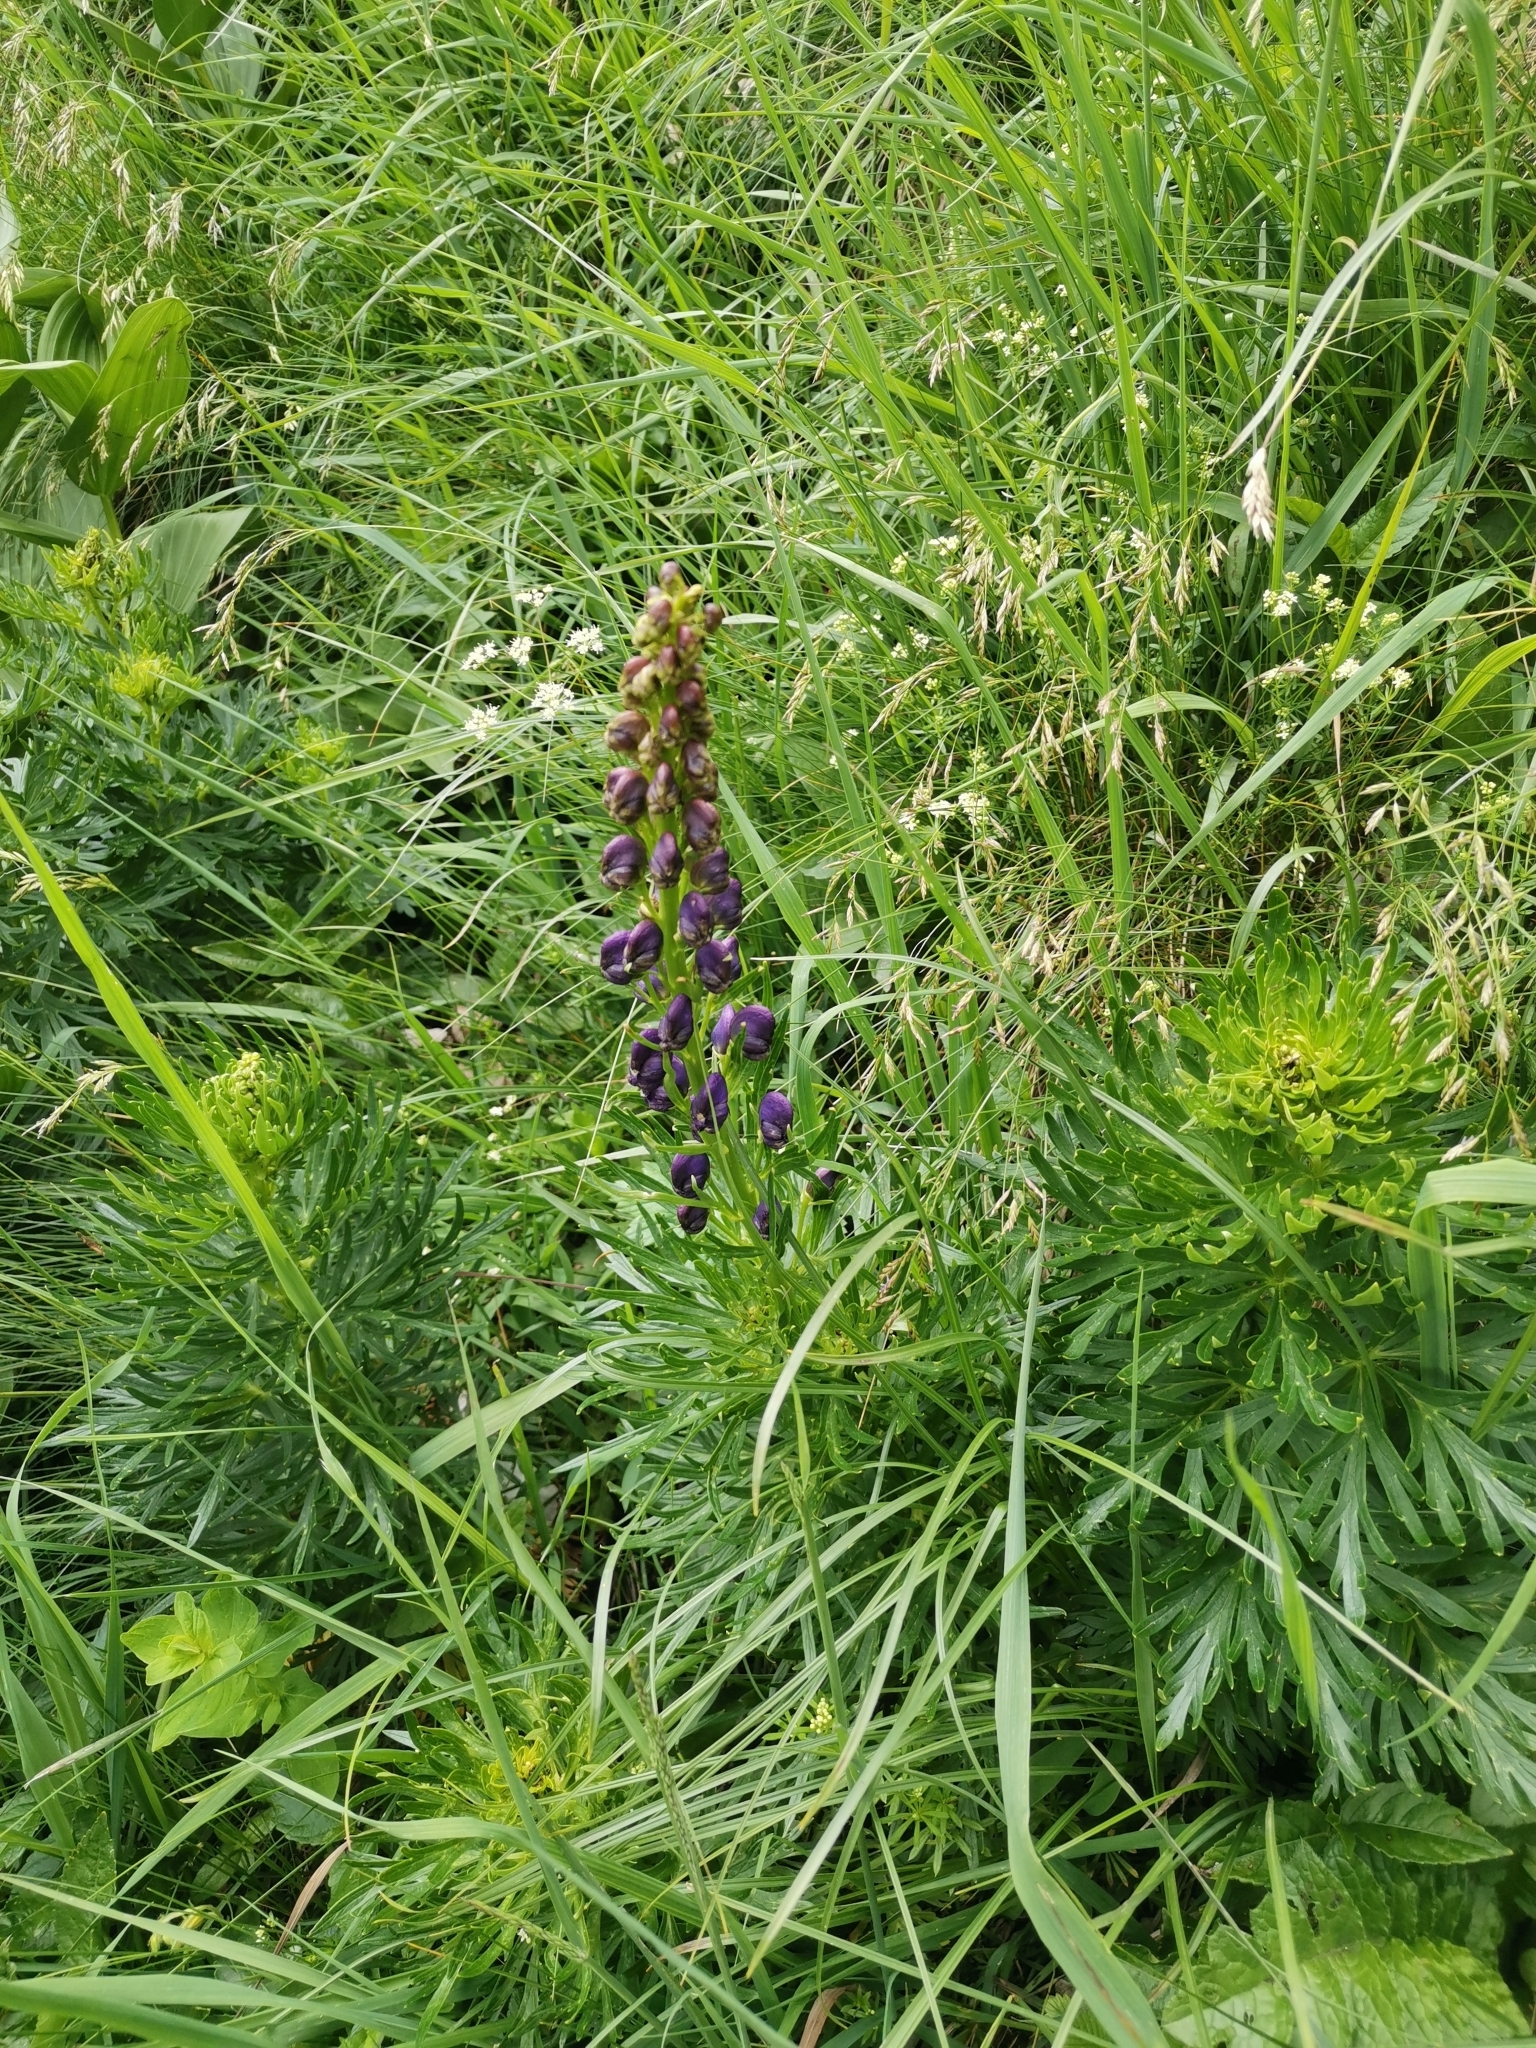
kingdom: Plantae
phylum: Tracheophyta
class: Magnoliopsida
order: Ranunculales
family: Ranunculaceae
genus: Aconitum
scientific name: Aconitum tauricum
